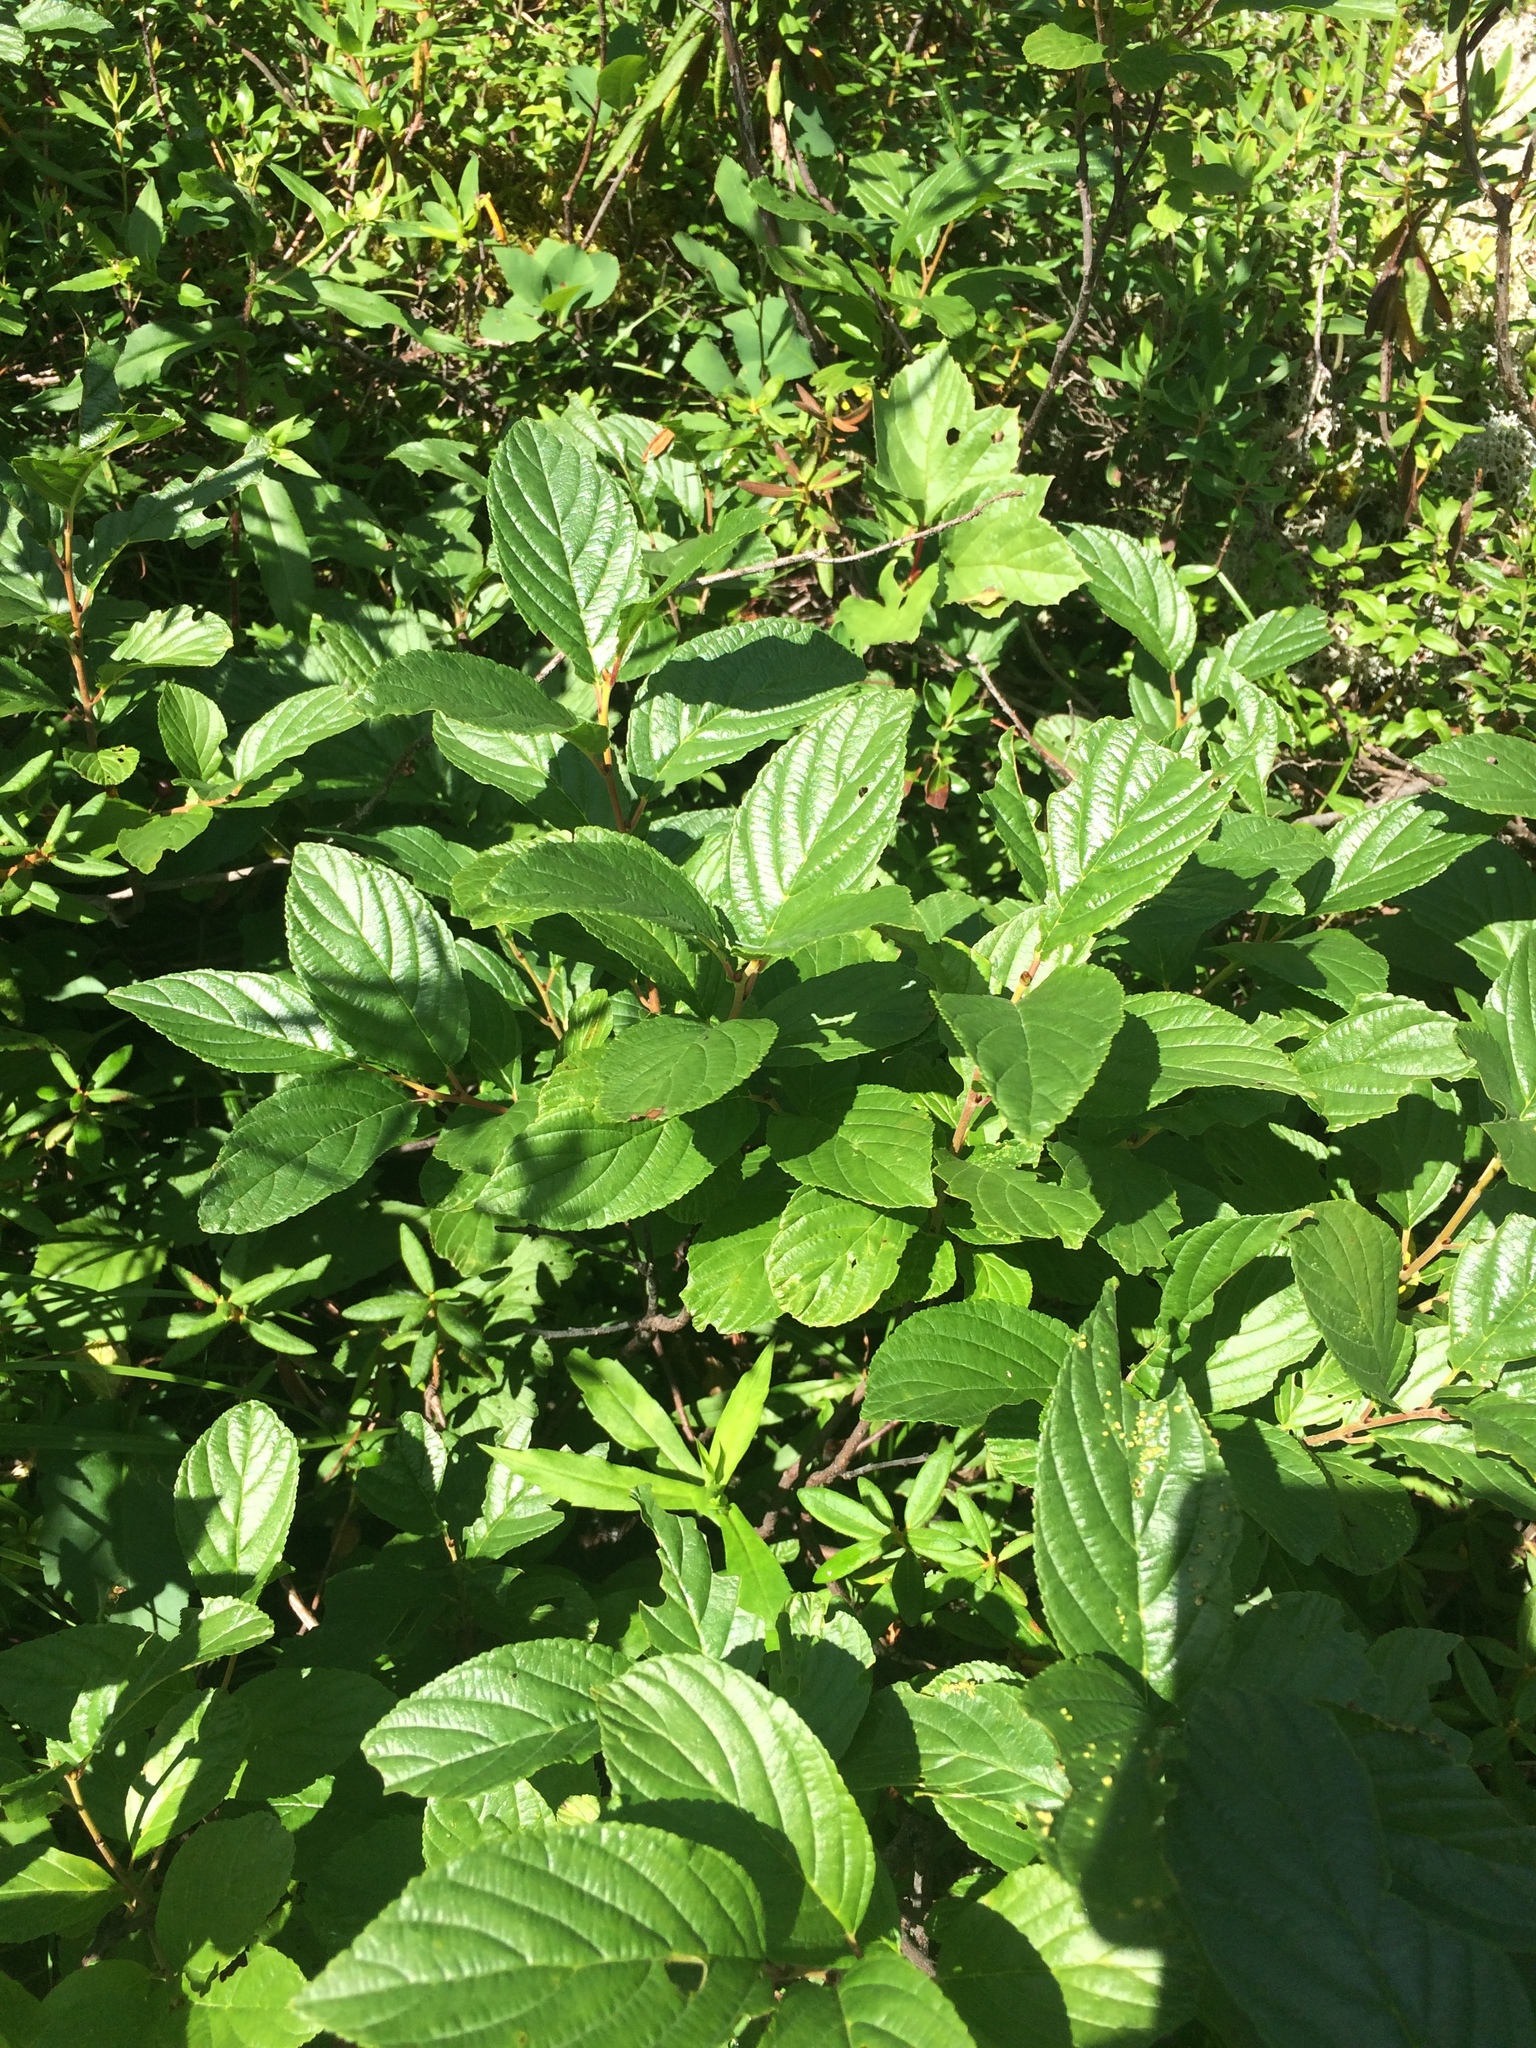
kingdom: Plantae
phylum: Tracheophyta
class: Magnoliopsida
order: Rosales
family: Rhamnaceae
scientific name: Rhamnaceae
